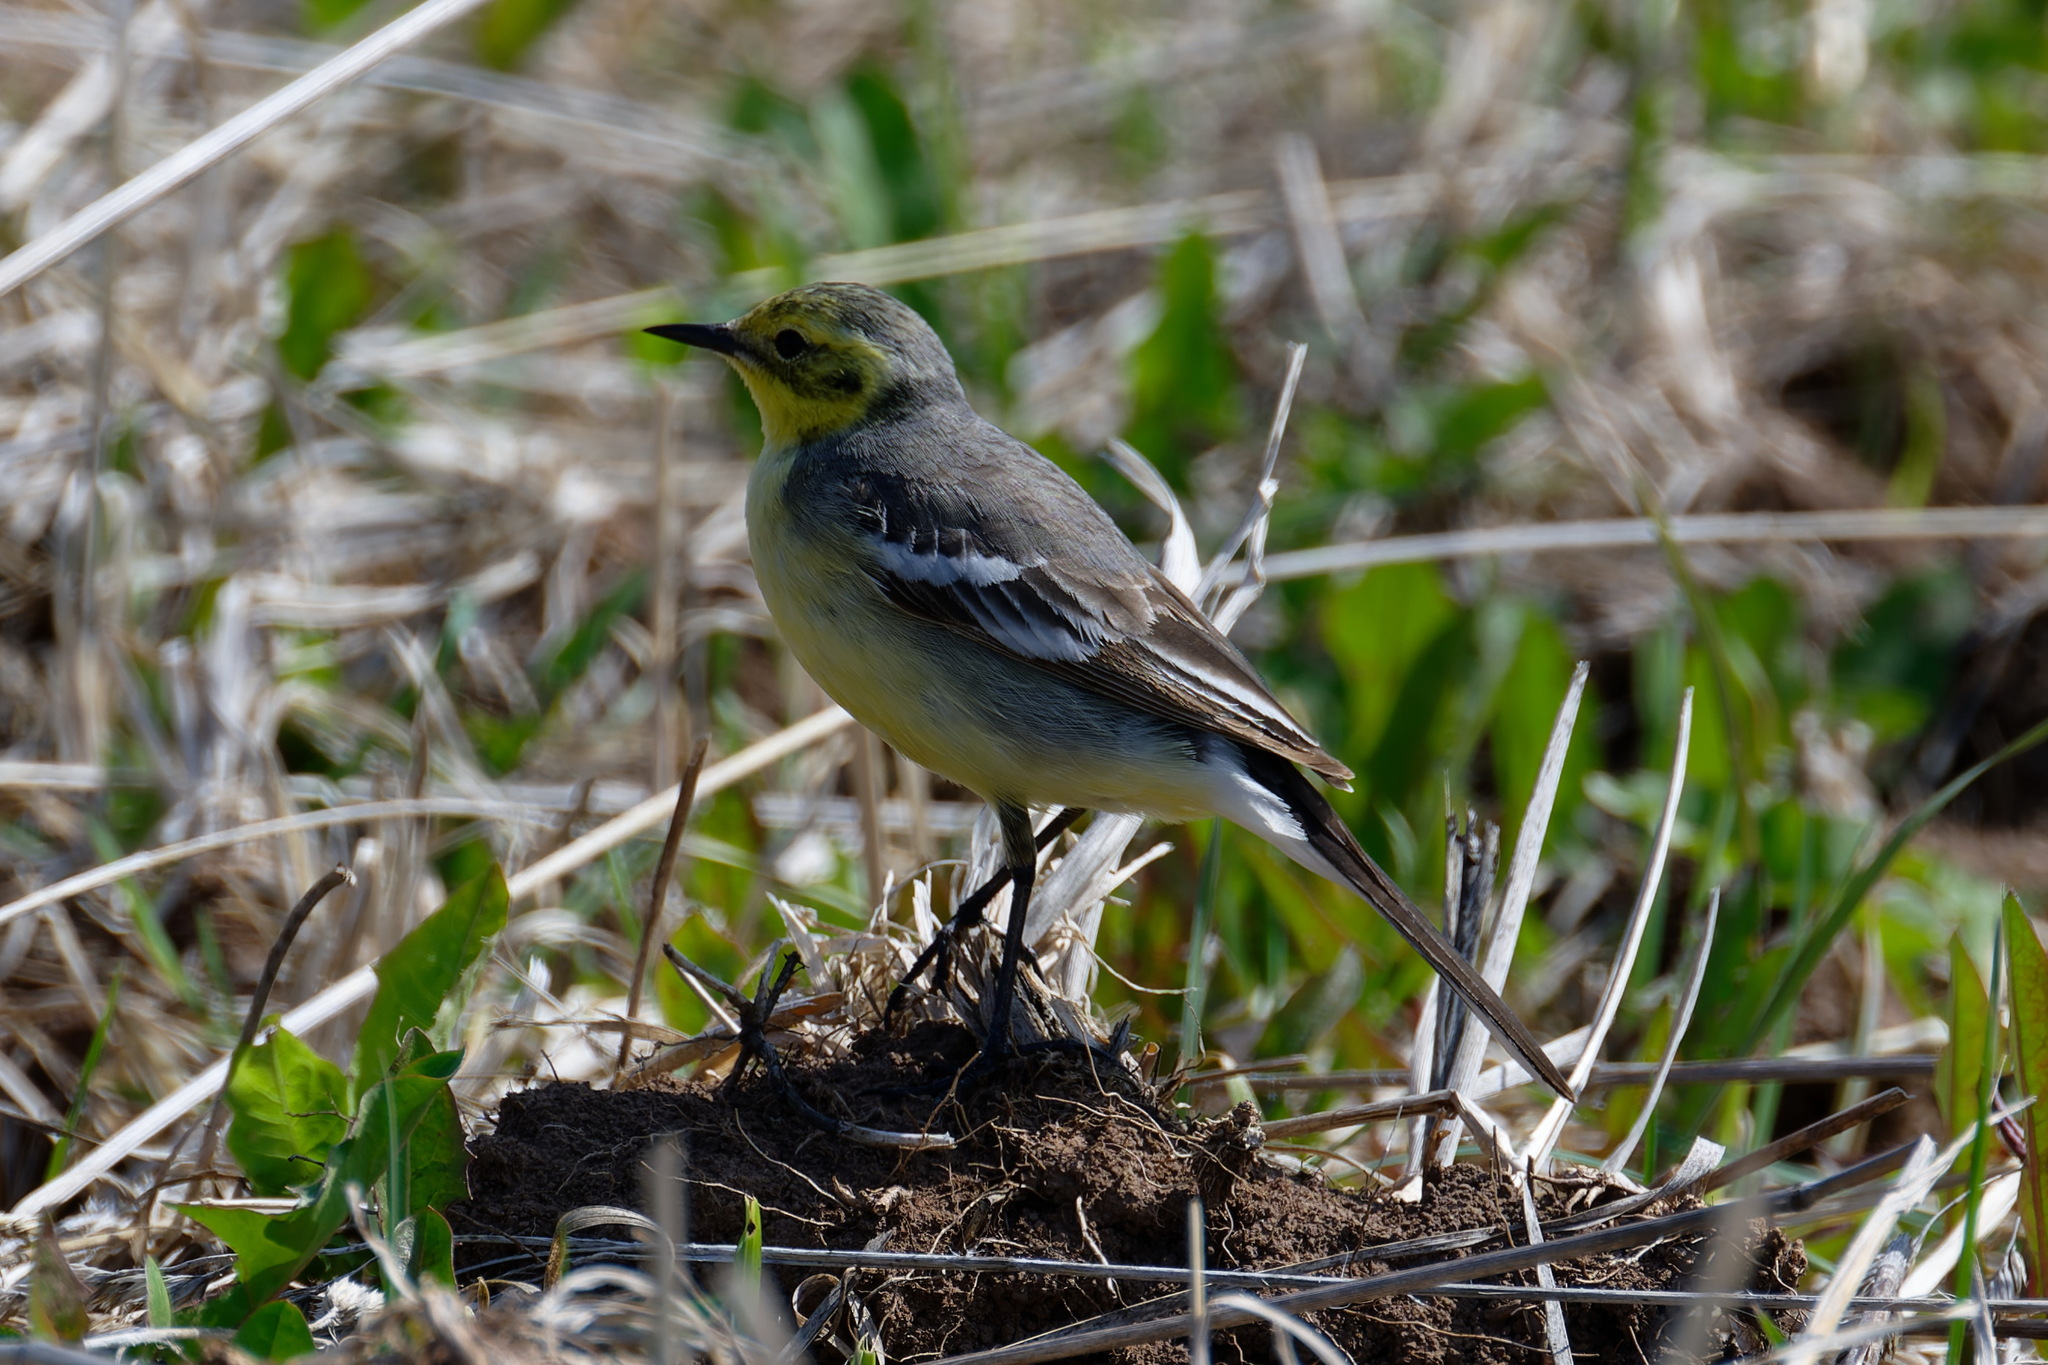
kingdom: Animalia
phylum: Chordata
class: Aves
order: Passeriformes
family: Motacillidae
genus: Motacilla
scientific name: Motacilla citreola
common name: Citrine wagtail
